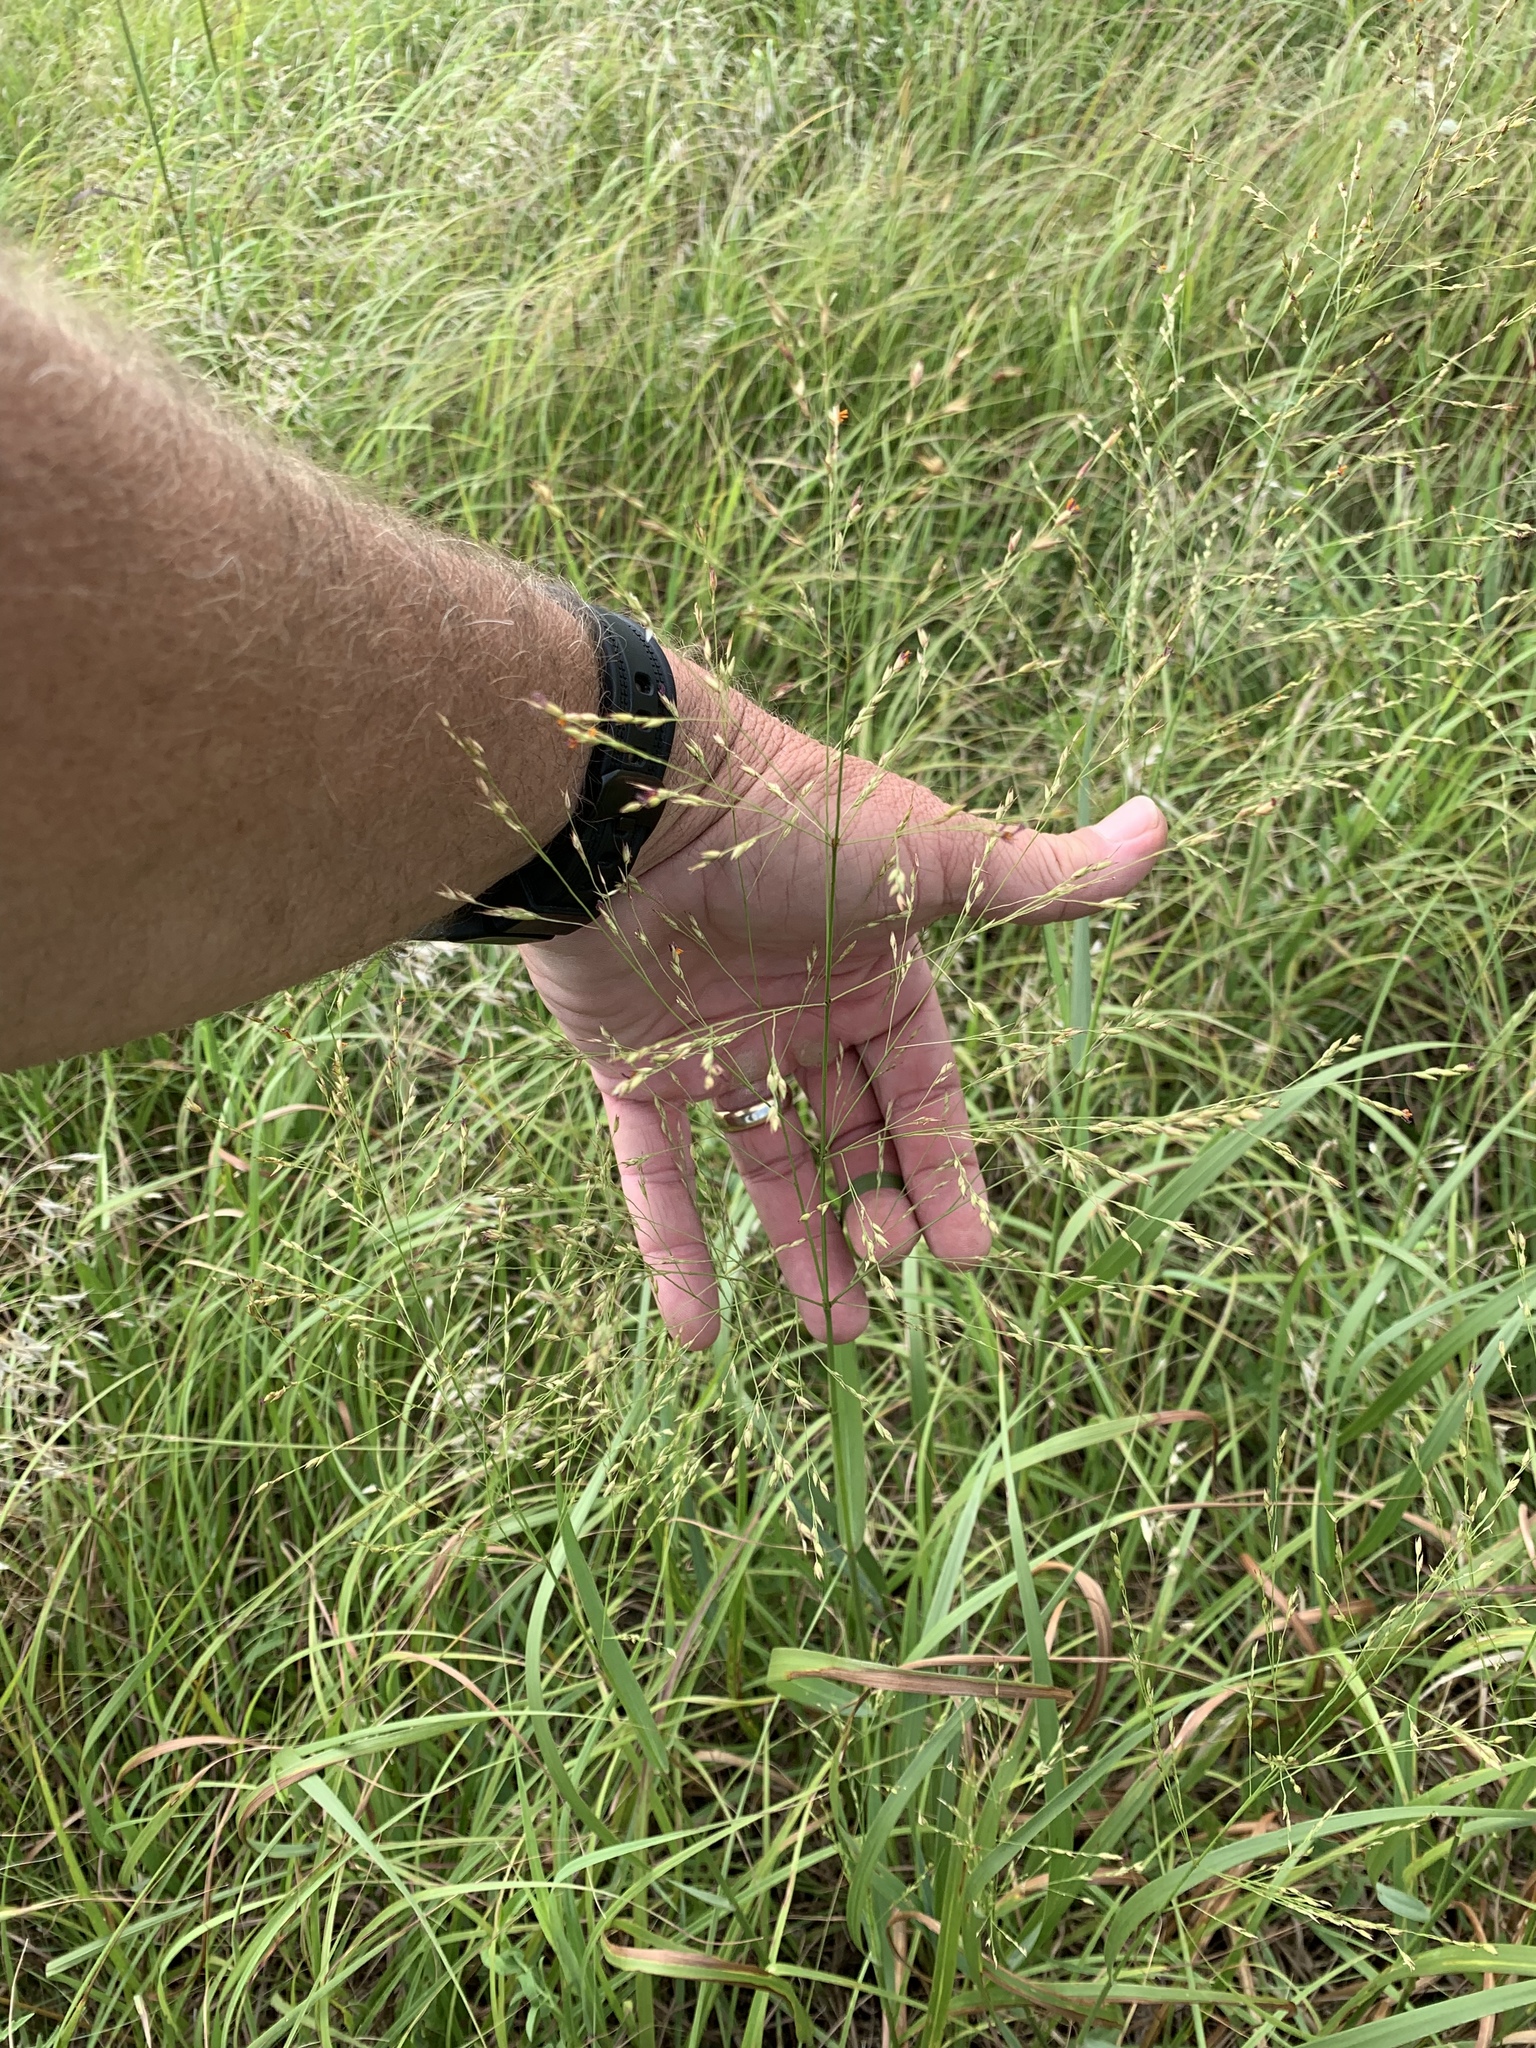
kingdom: Plantae
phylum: Tracheophyta
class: Liliopsida
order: Poales
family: Poaceae
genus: Panicum
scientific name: Panicum virgatum
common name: Switchgrass
